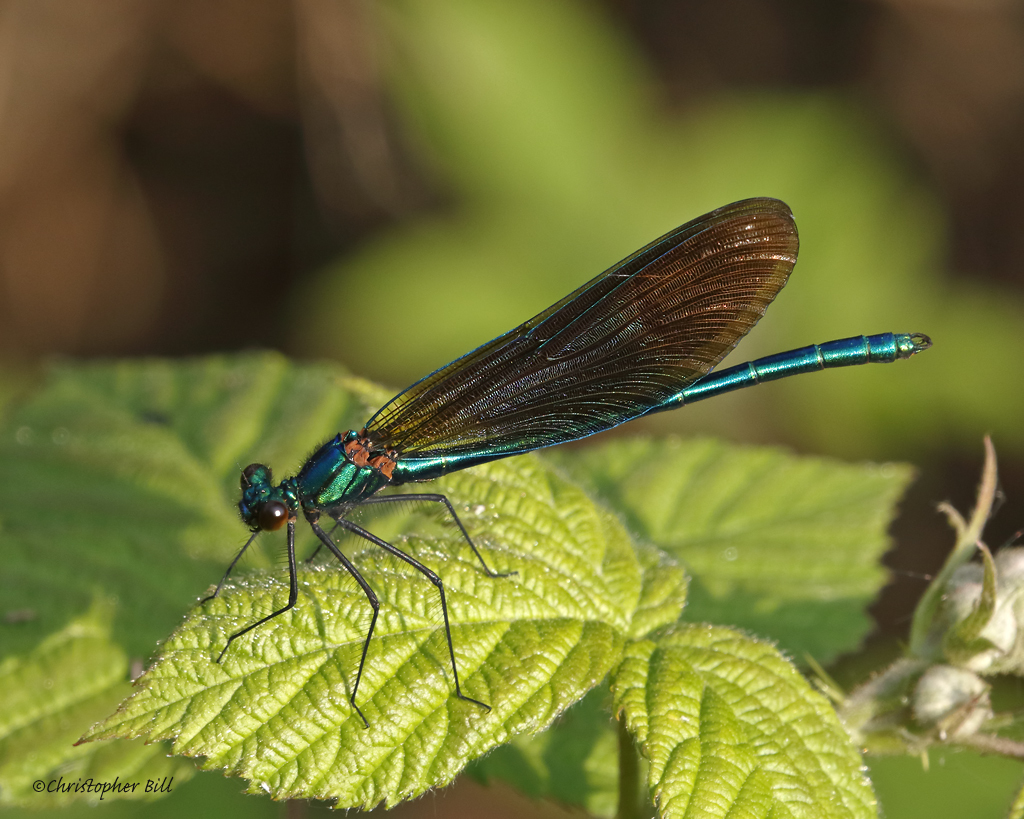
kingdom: Animalia
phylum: Arthropoda
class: Insecta
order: Odonata
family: Calopterygidae
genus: Calopteryx
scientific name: Calopteryx virgo
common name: Beautiful demoiselle
